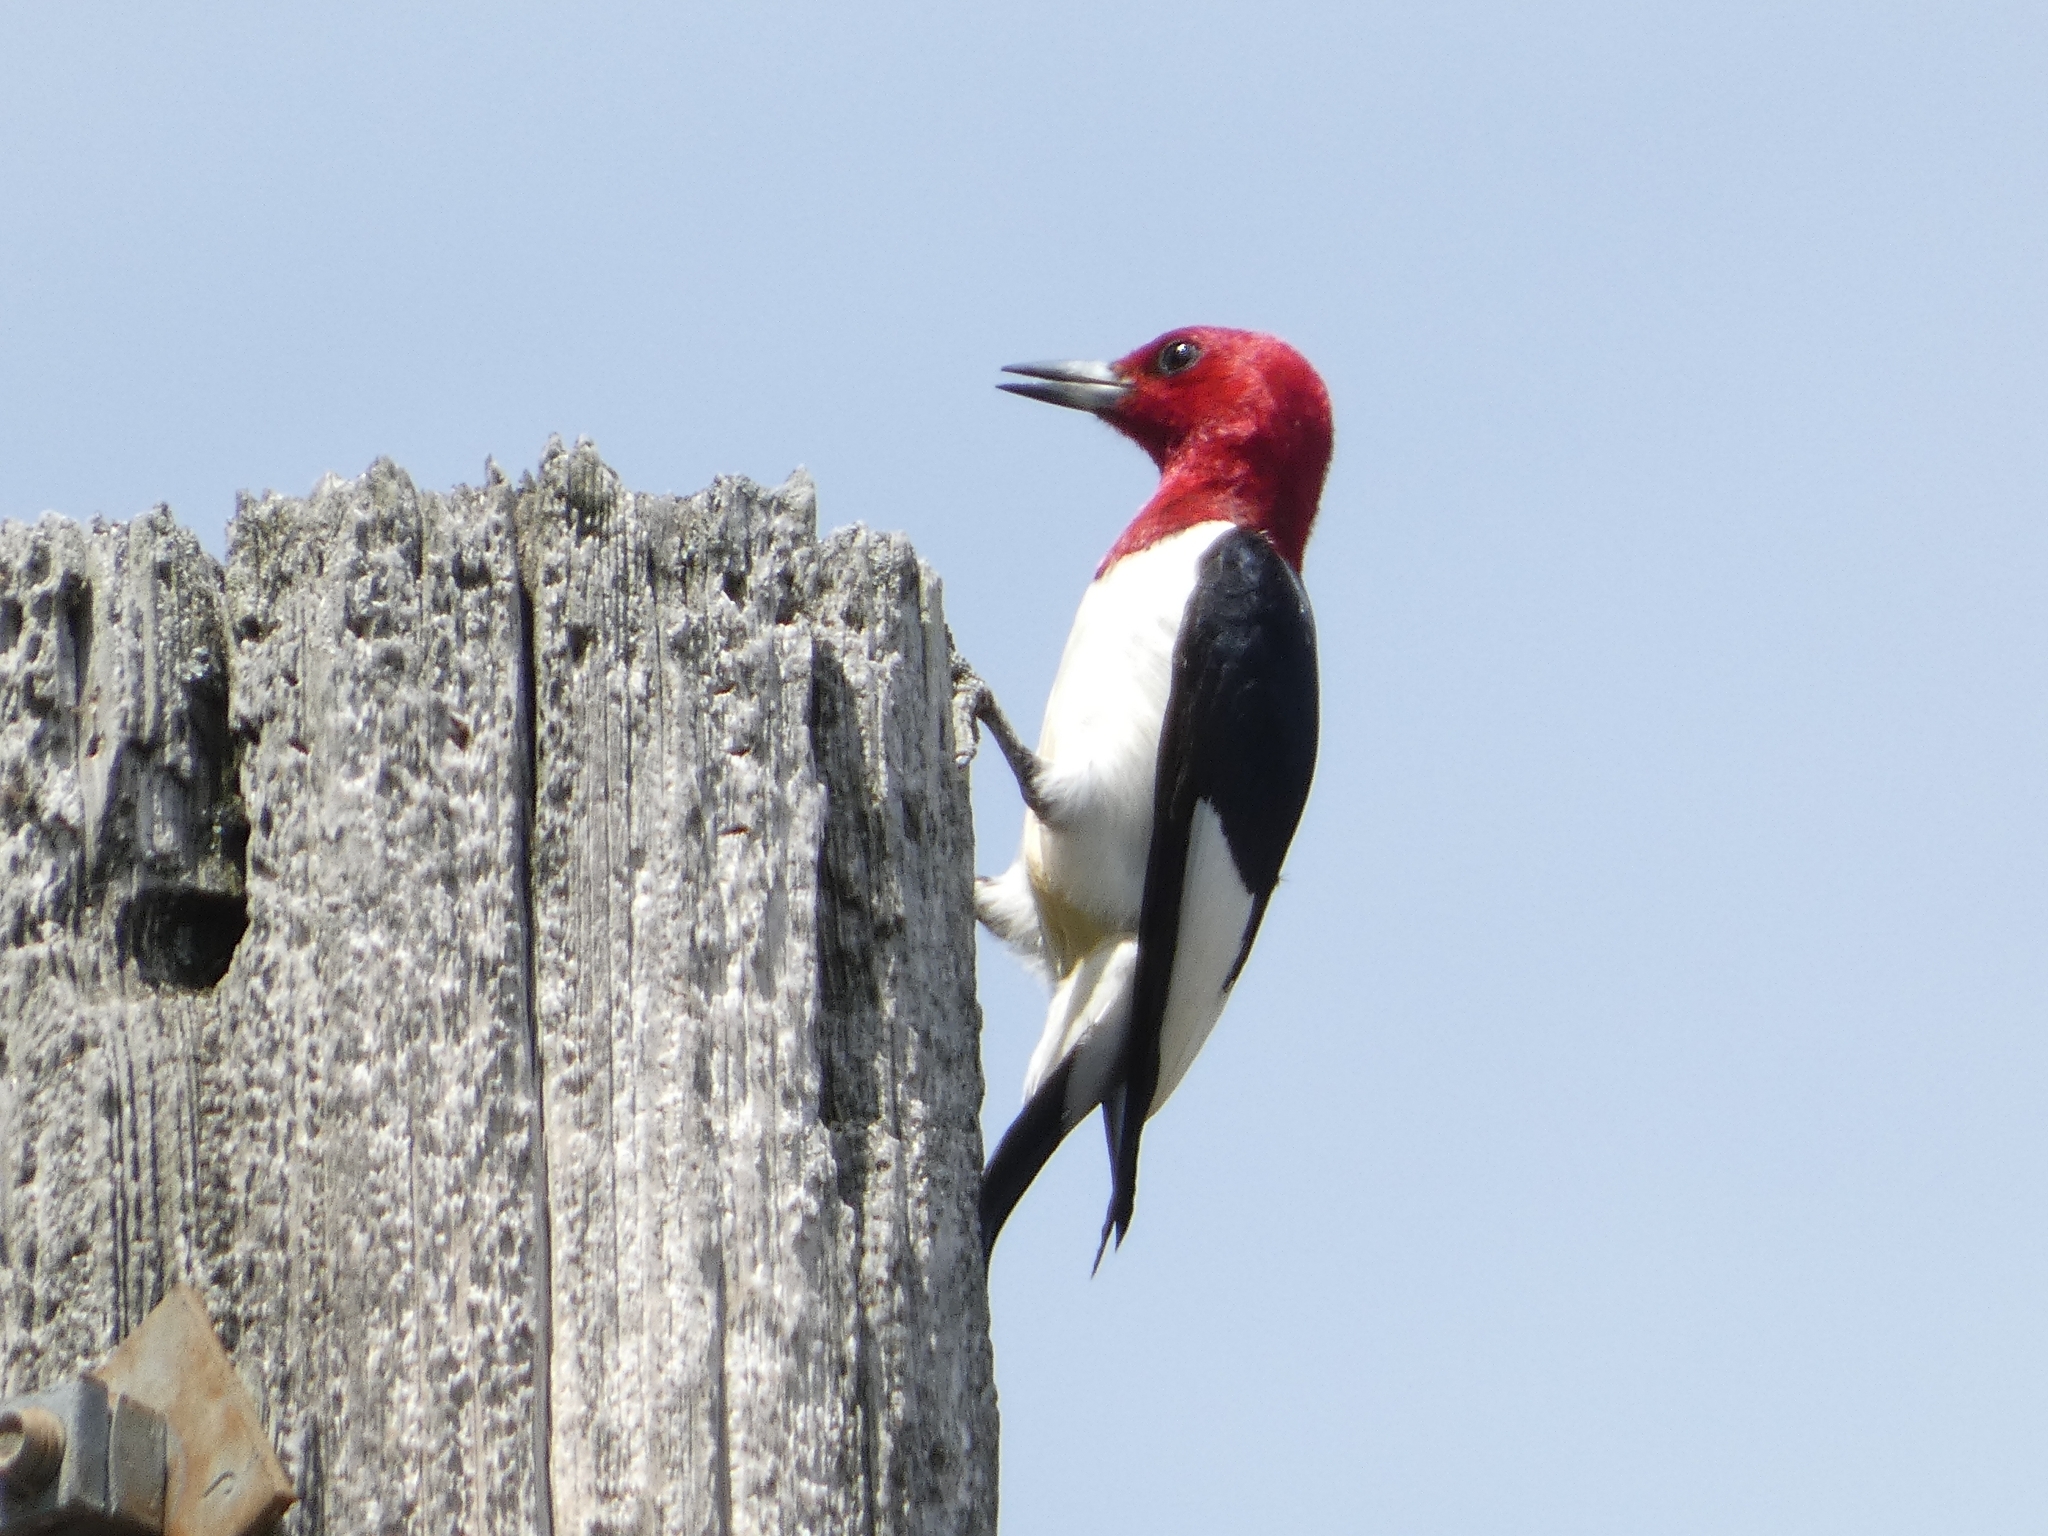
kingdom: Animalia
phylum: Chordata
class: Aves
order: Piciformes
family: Picidae
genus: Melanerpes
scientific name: Melanerpes erythrocephalus
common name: Red-headed woodpecker
